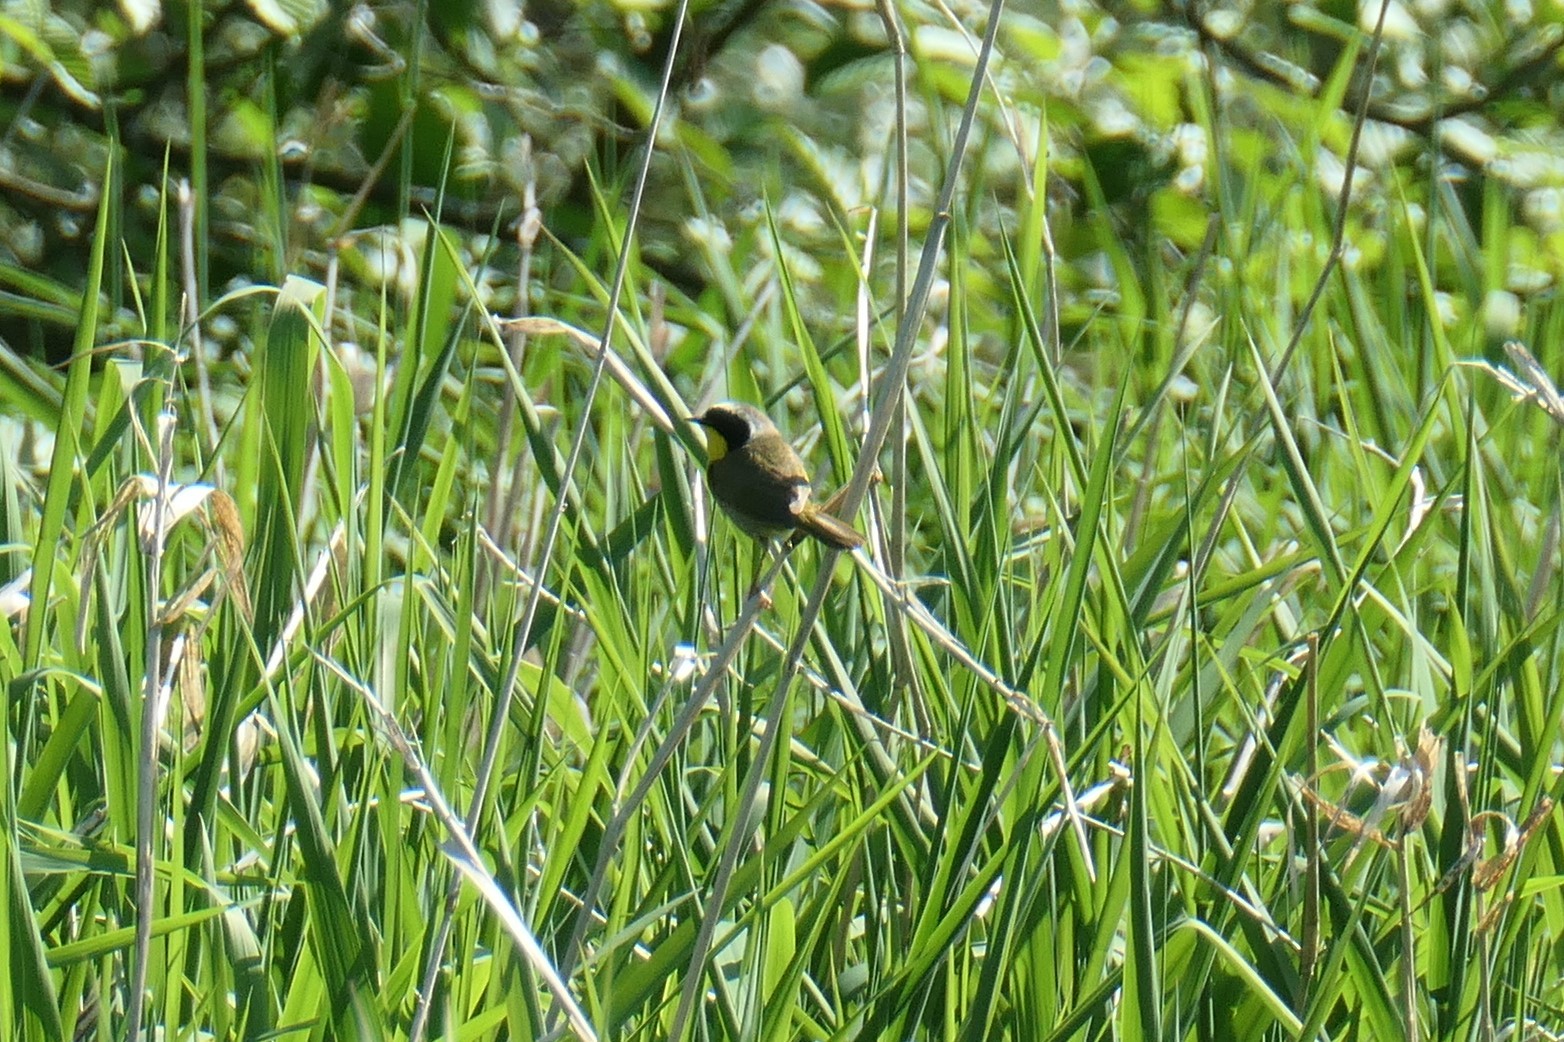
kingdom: Animalia
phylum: Chordata
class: Aves
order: Passeriformes
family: Parulidae
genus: Geothlypis
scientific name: Geothlypis trichas
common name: Common yellowthroat
